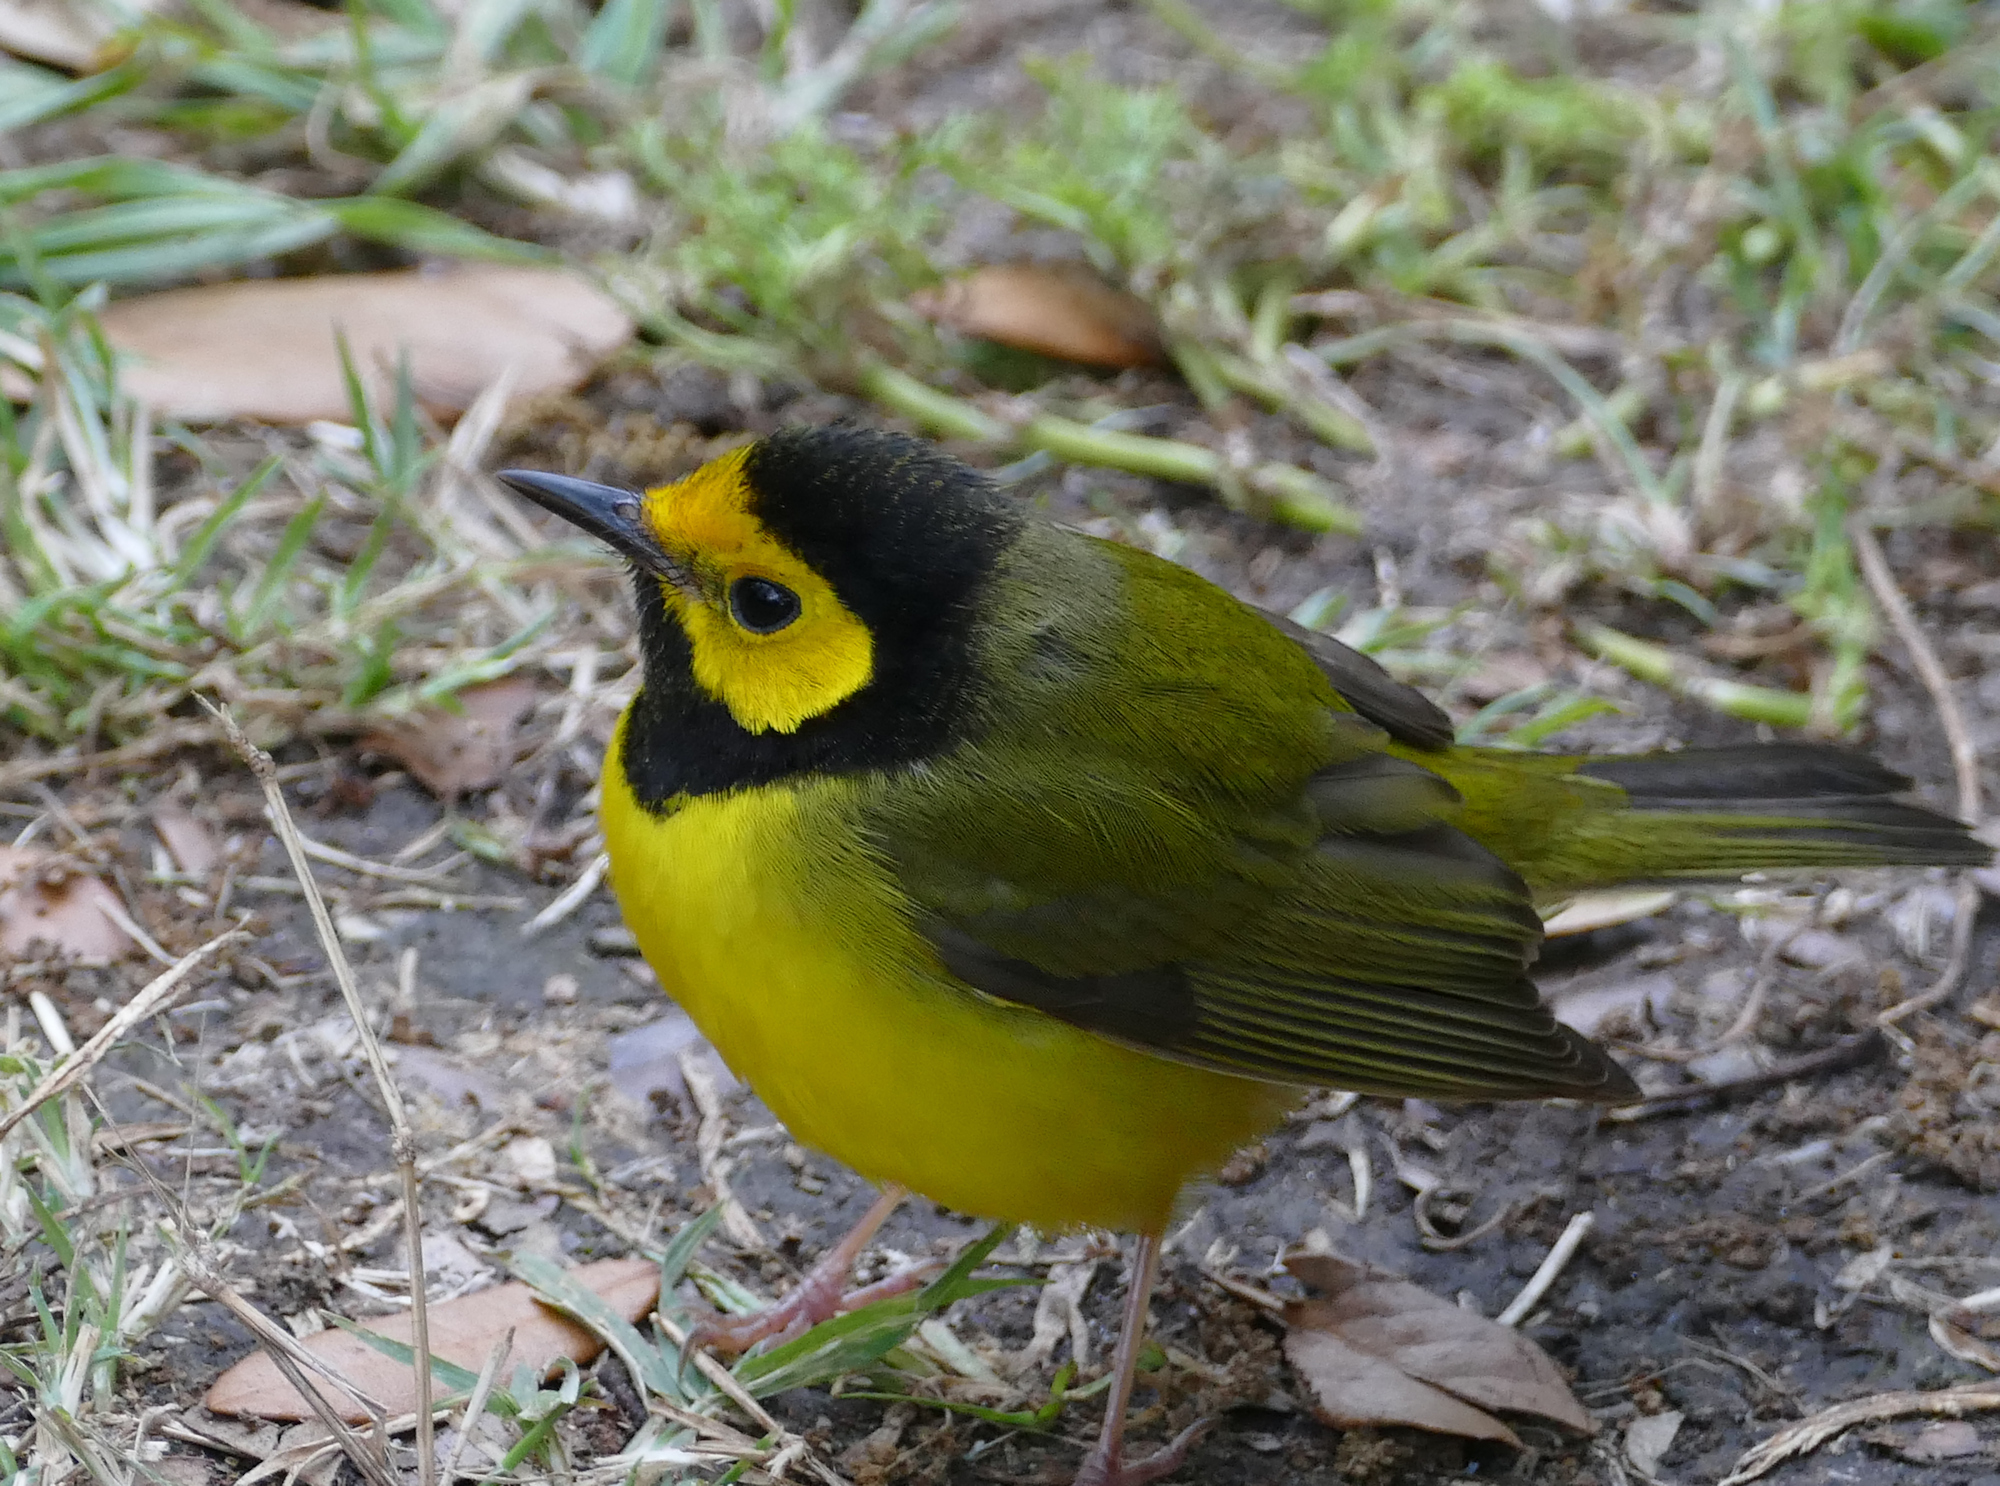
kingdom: Animalia
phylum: Chordata
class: Aves
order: Passeriformes
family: Parulidae
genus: Setophaga
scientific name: Setophaga citrina
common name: Hooded warbler
